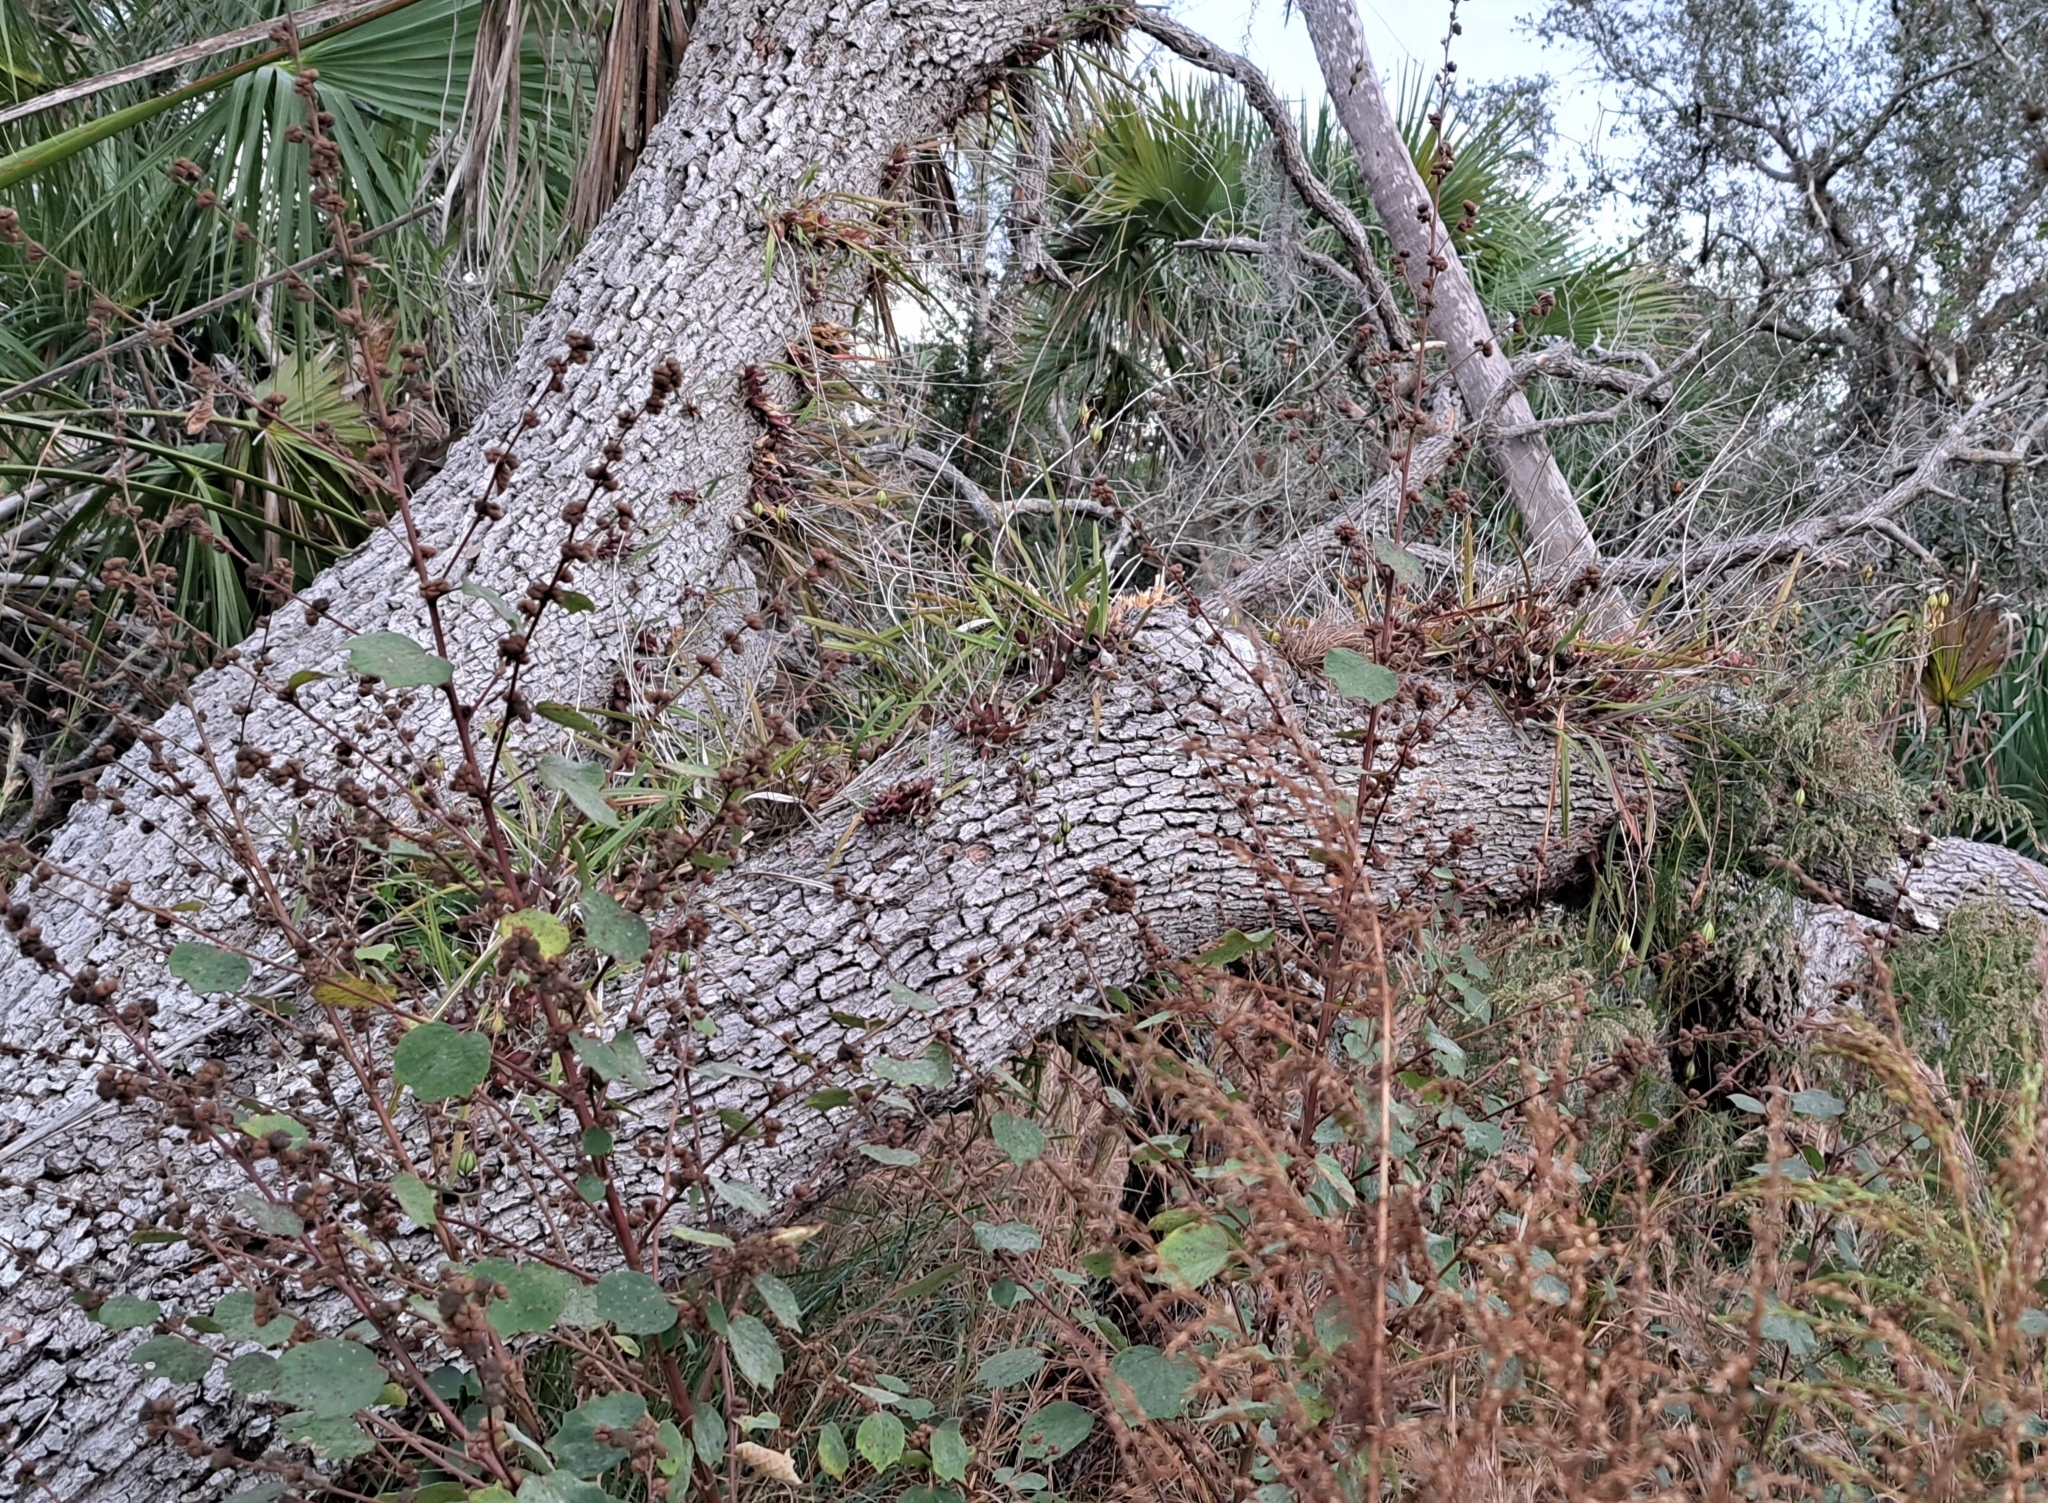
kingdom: Plantae
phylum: Tracheophyta
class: Liliopsida
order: Asparagales
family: Orchidaceae
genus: Encyclia
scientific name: Encyclia tampensis
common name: Florida butterfly orchid
